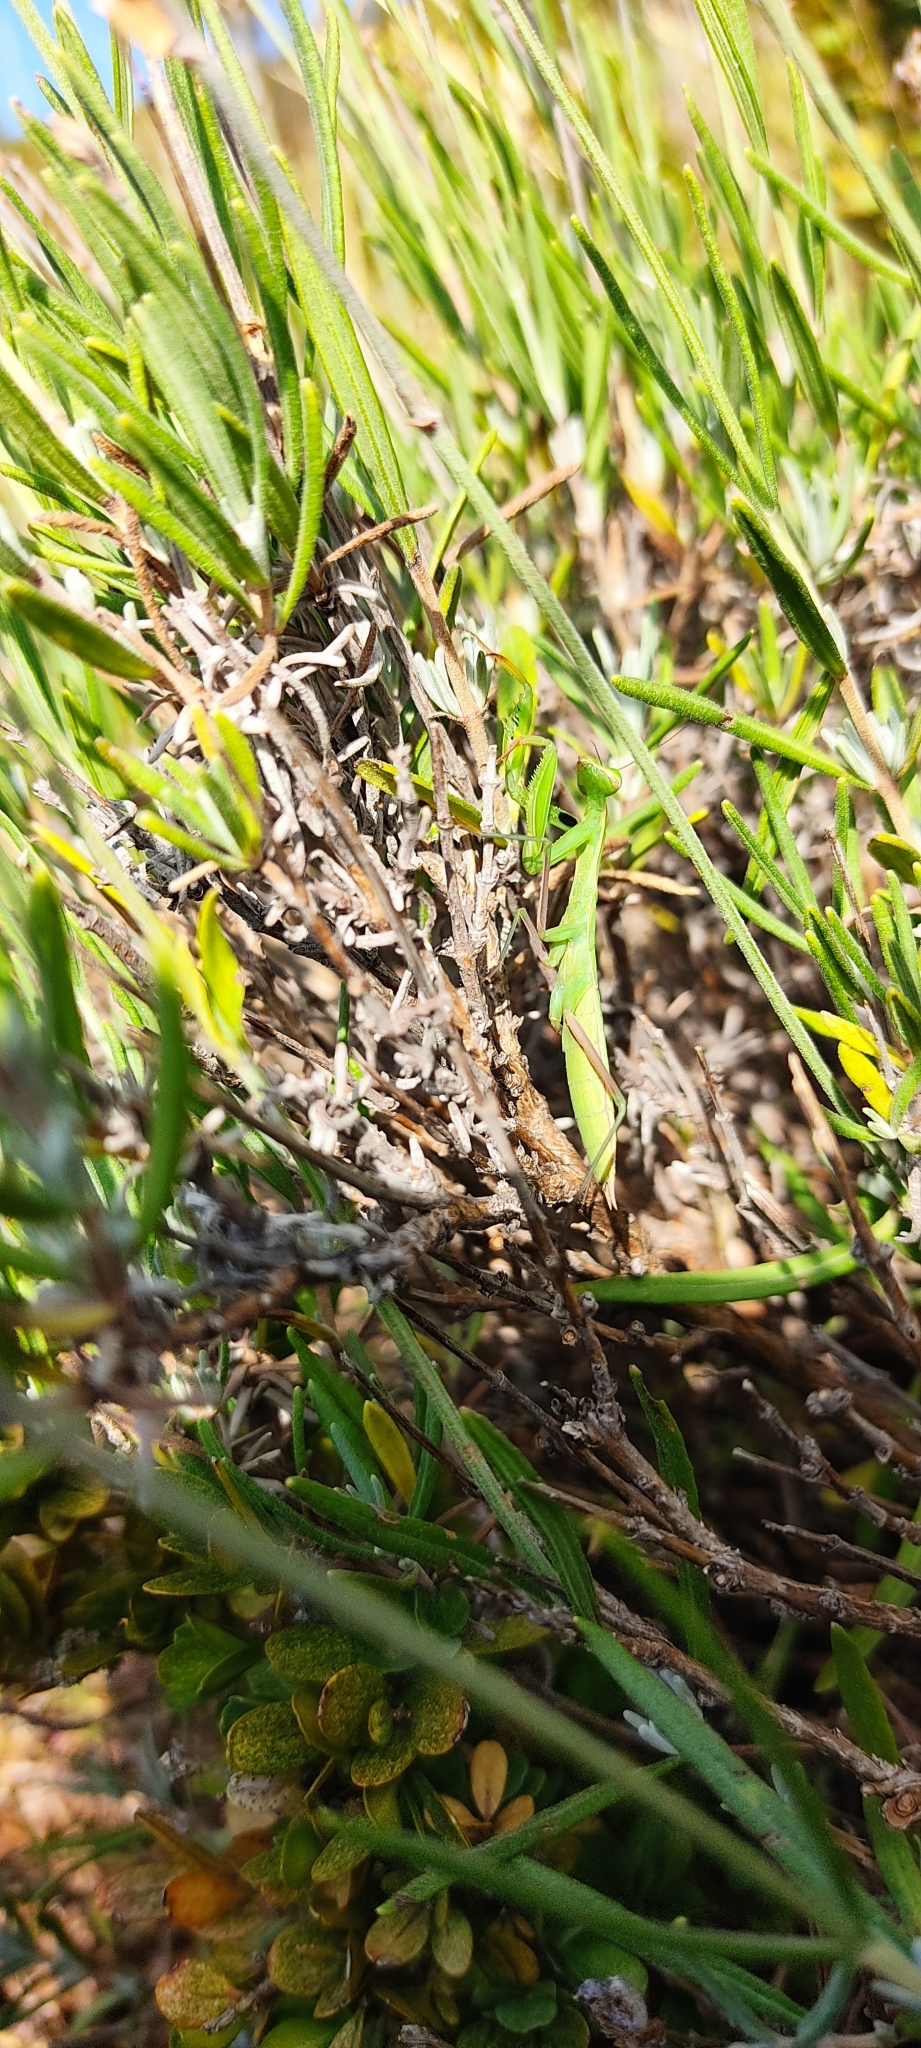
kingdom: Animalia
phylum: Arthropoda
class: Insecta
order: Mantodea
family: Mantidae
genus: Mantis
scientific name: Mantis religiosa
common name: Praying mantis
